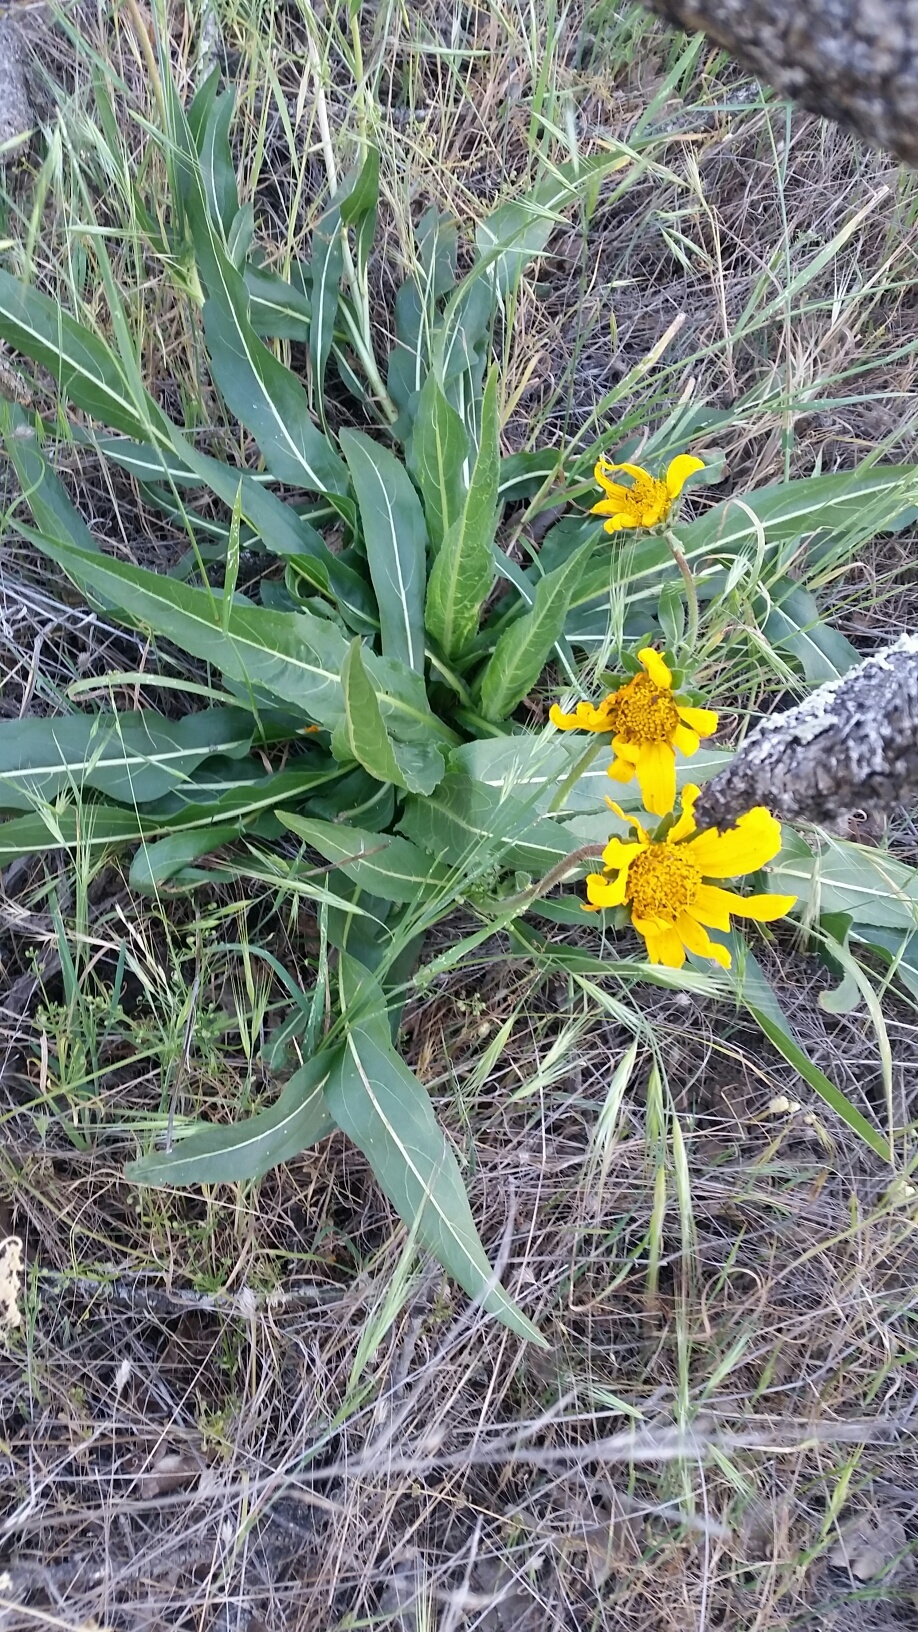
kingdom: Plantae
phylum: Tracheophyta
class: Magnoliopsida
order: Asterales
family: Asteraceae
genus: Wyethia
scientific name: Wyethia angustifolia
